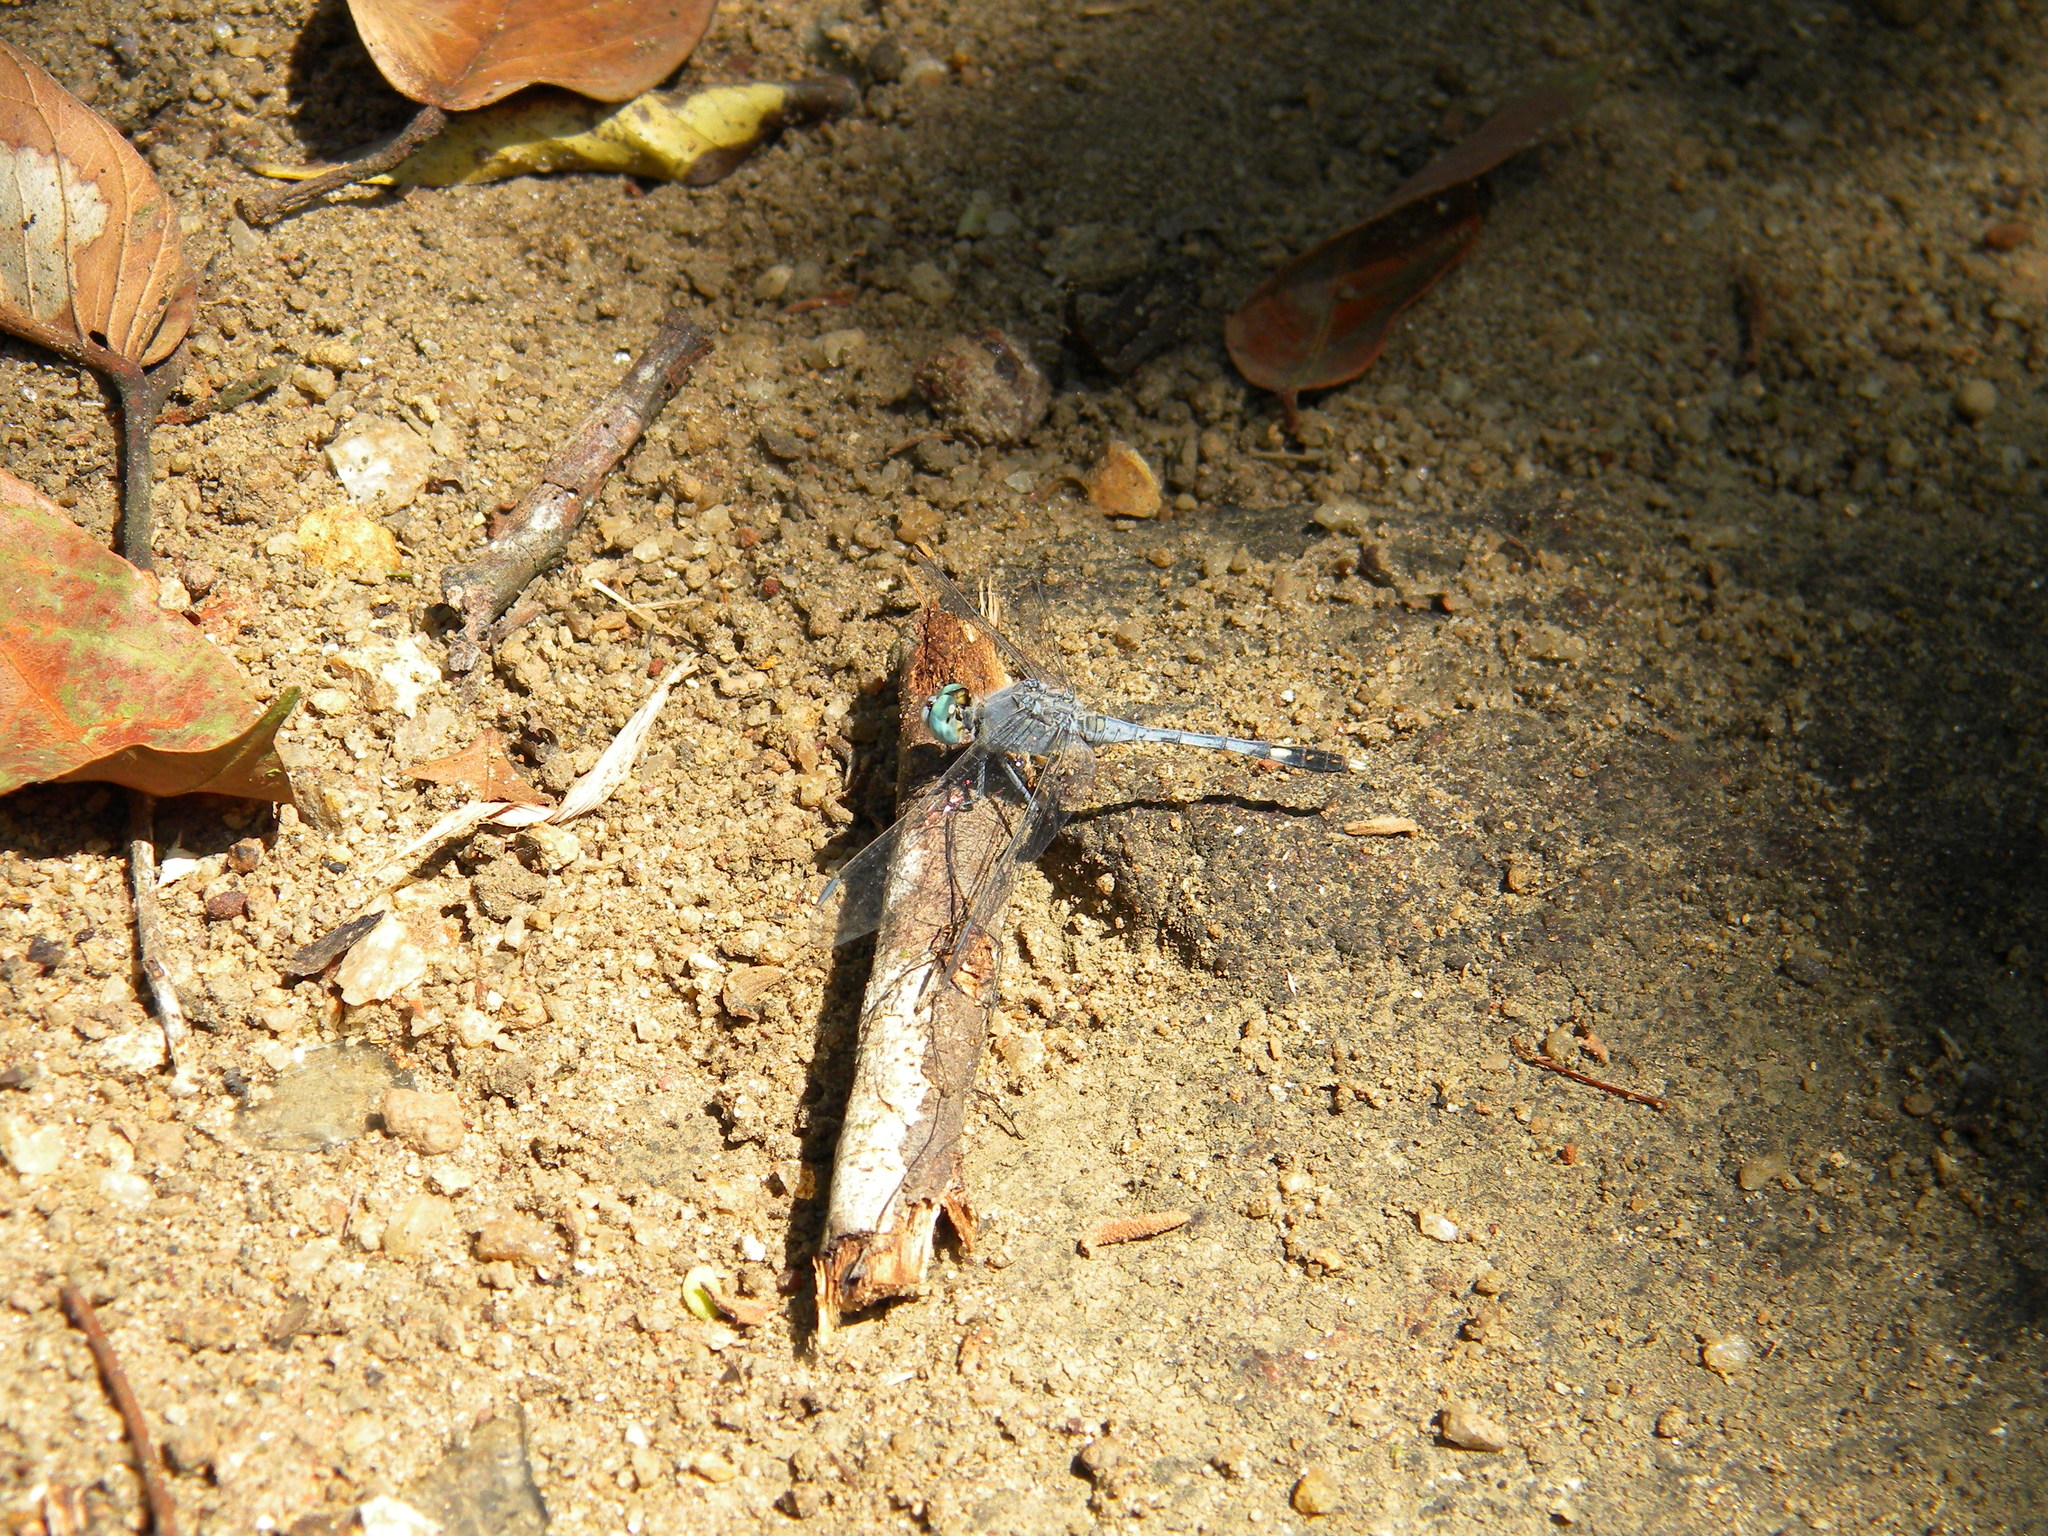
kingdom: Animalia
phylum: Arthropoda
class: Insecta
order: Odonata
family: Libellulidae
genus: Diplacodes
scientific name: Diplacodes trivialis
